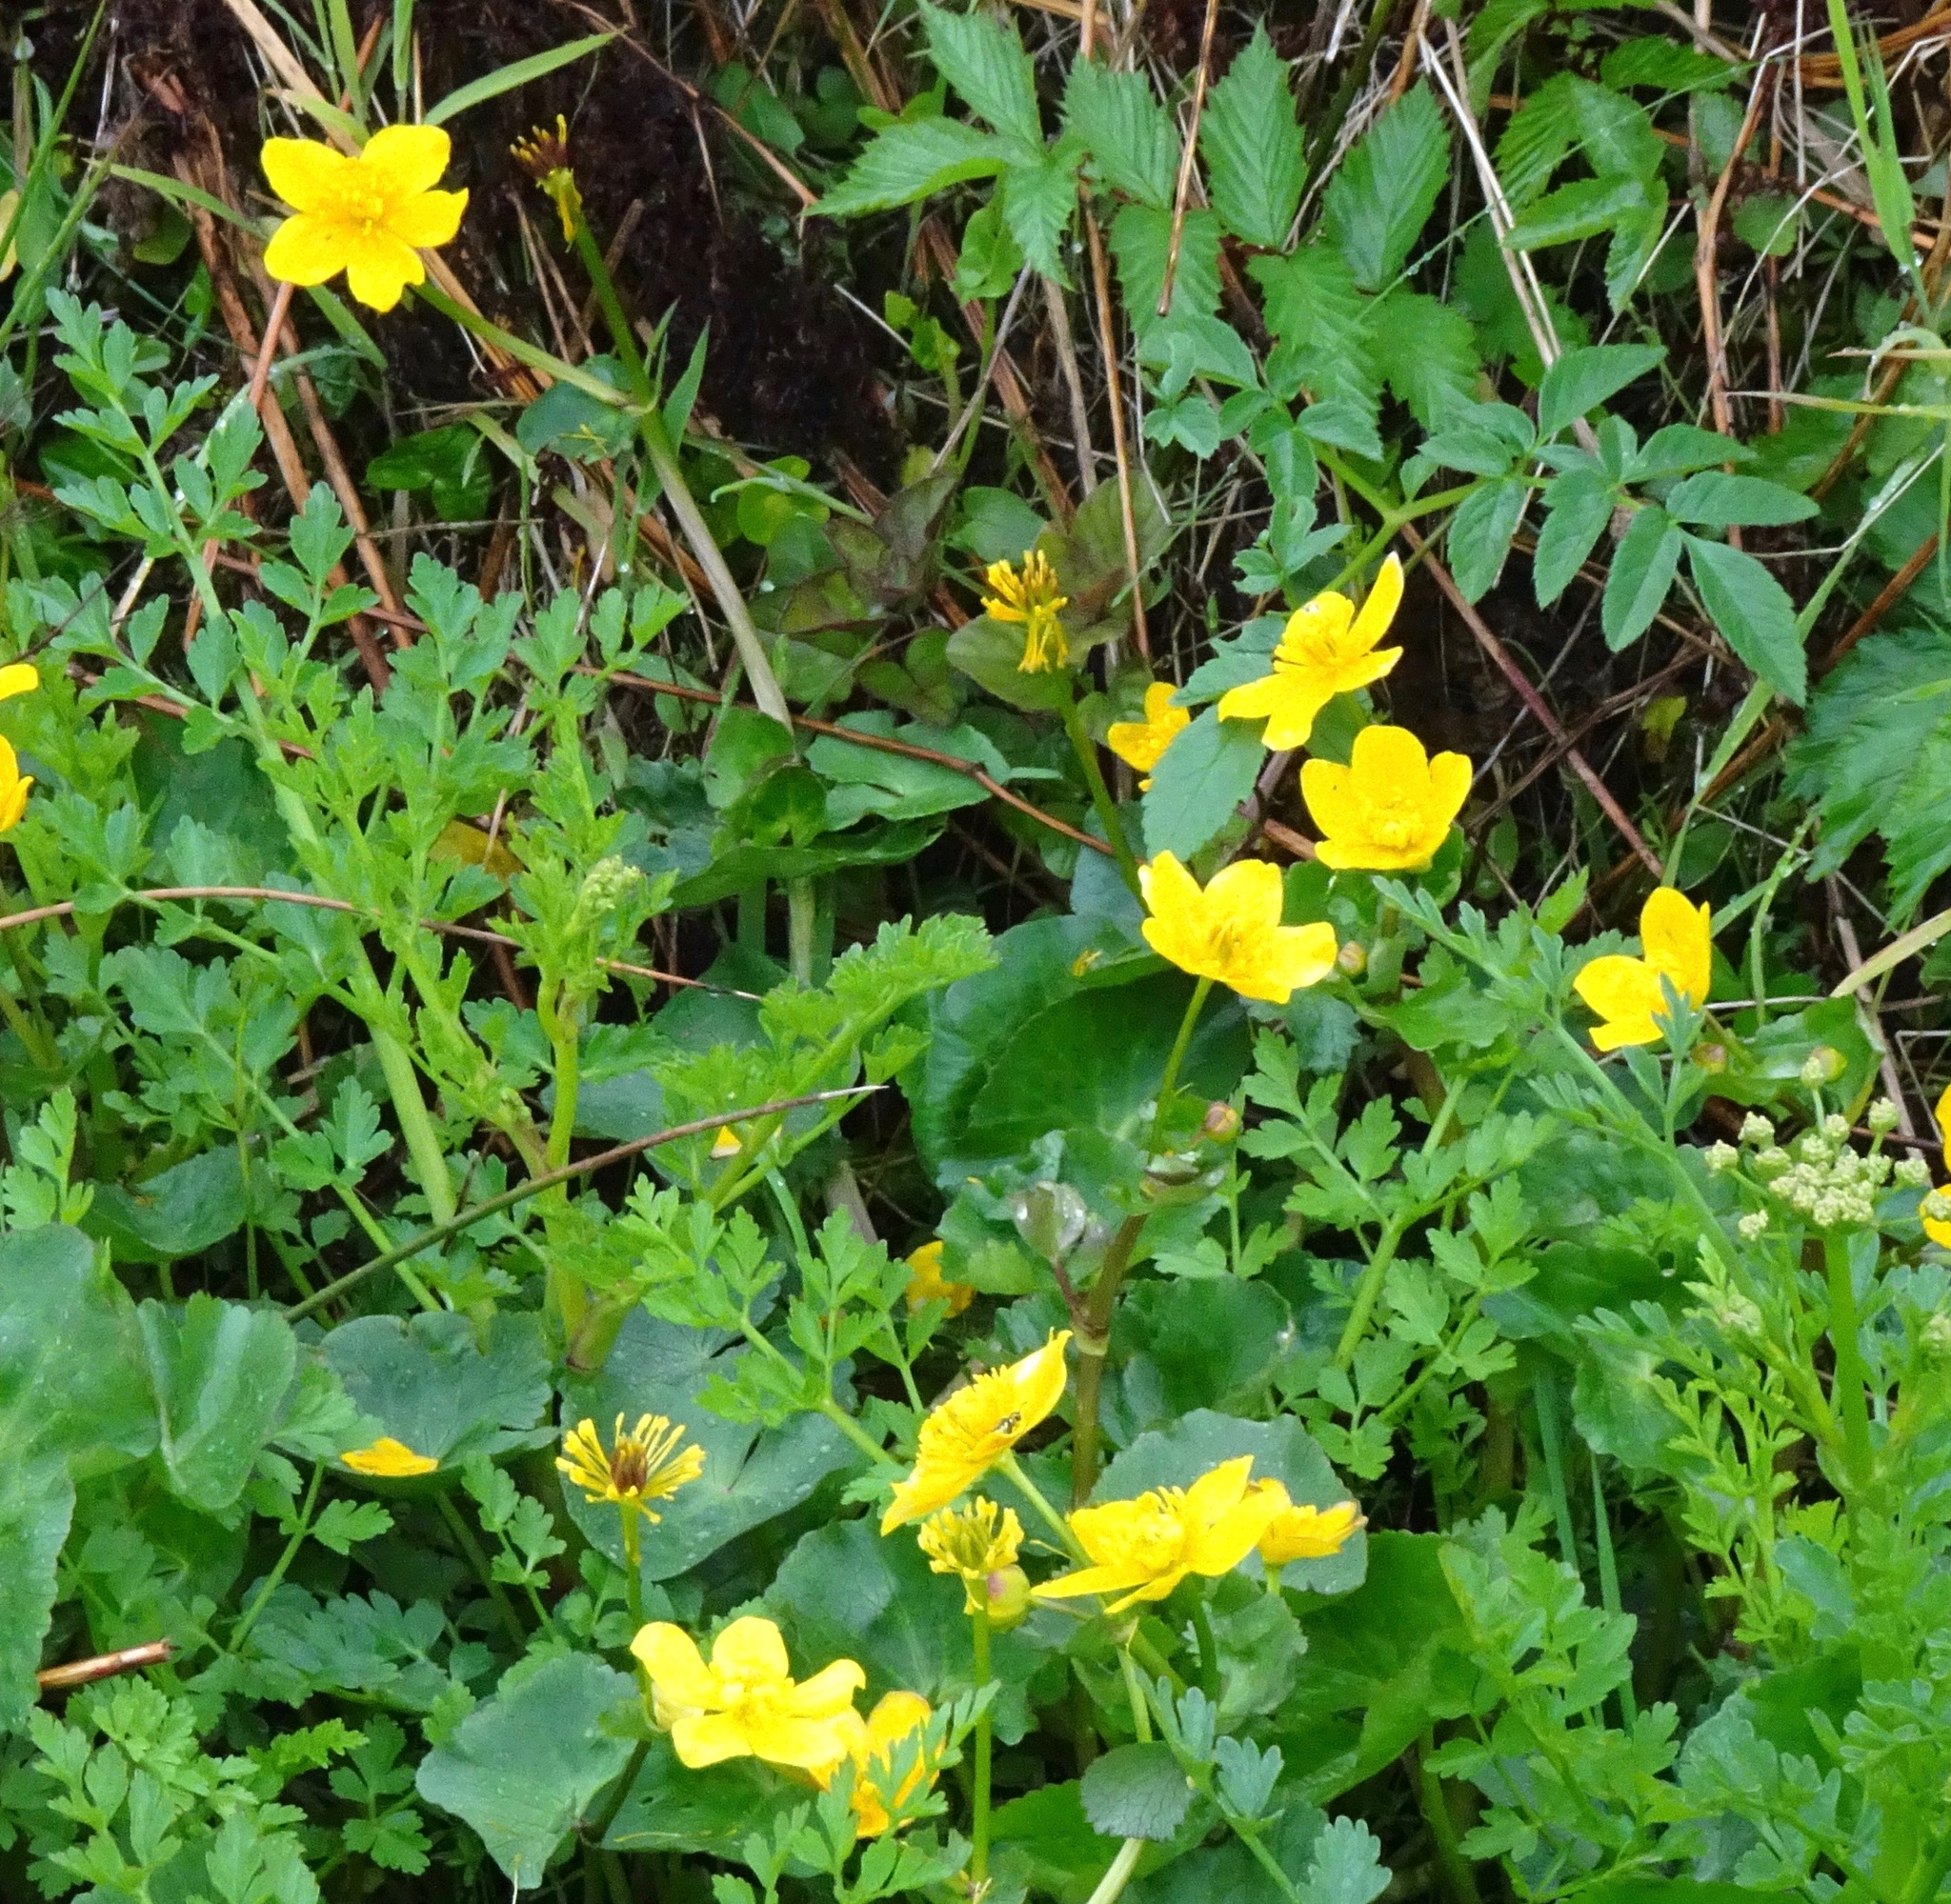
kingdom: Plantae
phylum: Tracheophyta
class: Magnoliopsida
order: Ranunculales
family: Ranunculaceae
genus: Caltha
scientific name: Caltha palustris
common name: Marsh marigold
